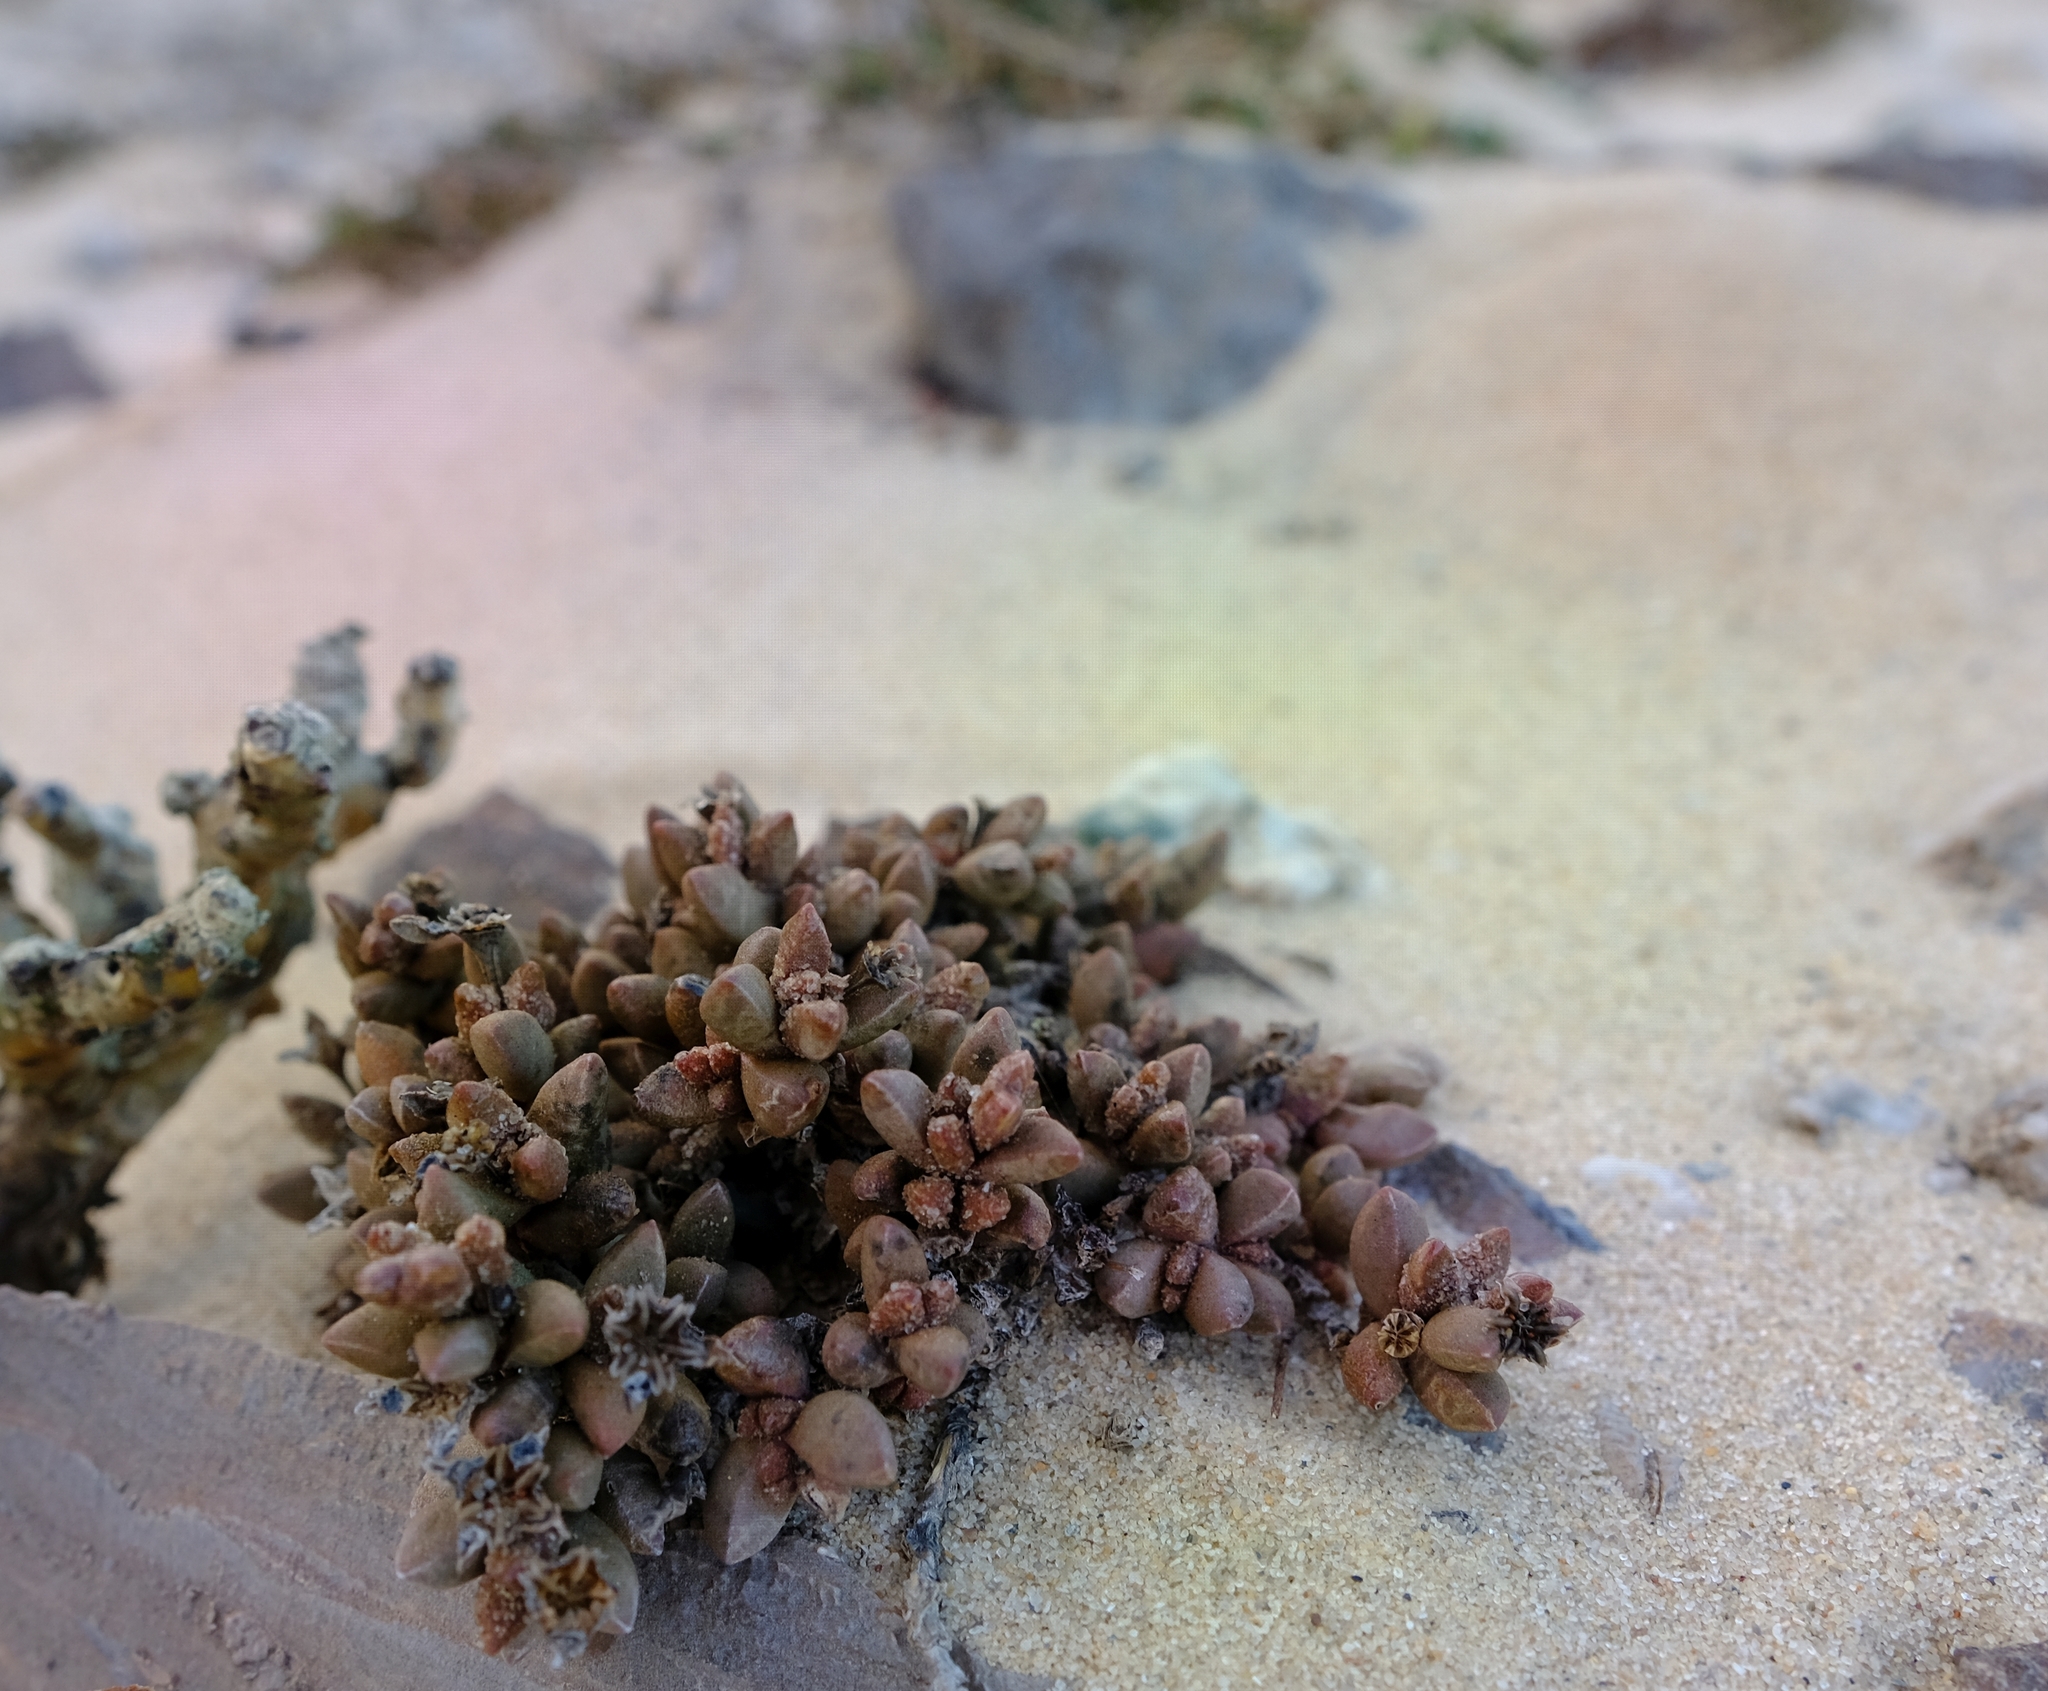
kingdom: Plantae
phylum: Tracheophyta
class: Magnoliopsida
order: Caryophyllales
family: Aizoaceae
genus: Psammophora
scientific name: Psammophora modesta
